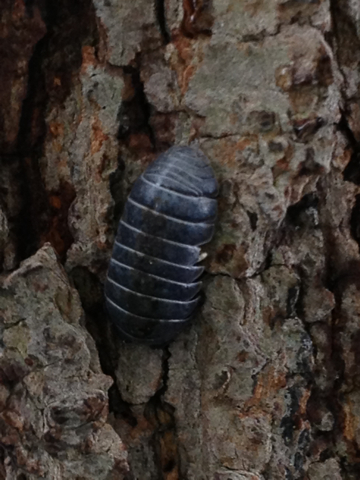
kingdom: Animalia
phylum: Arthropoda
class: Malacostraca
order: Isopoda
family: Armadillidiidae
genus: Armadillidium
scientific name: Armadillidium vulgare
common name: Common pill woodlouse
